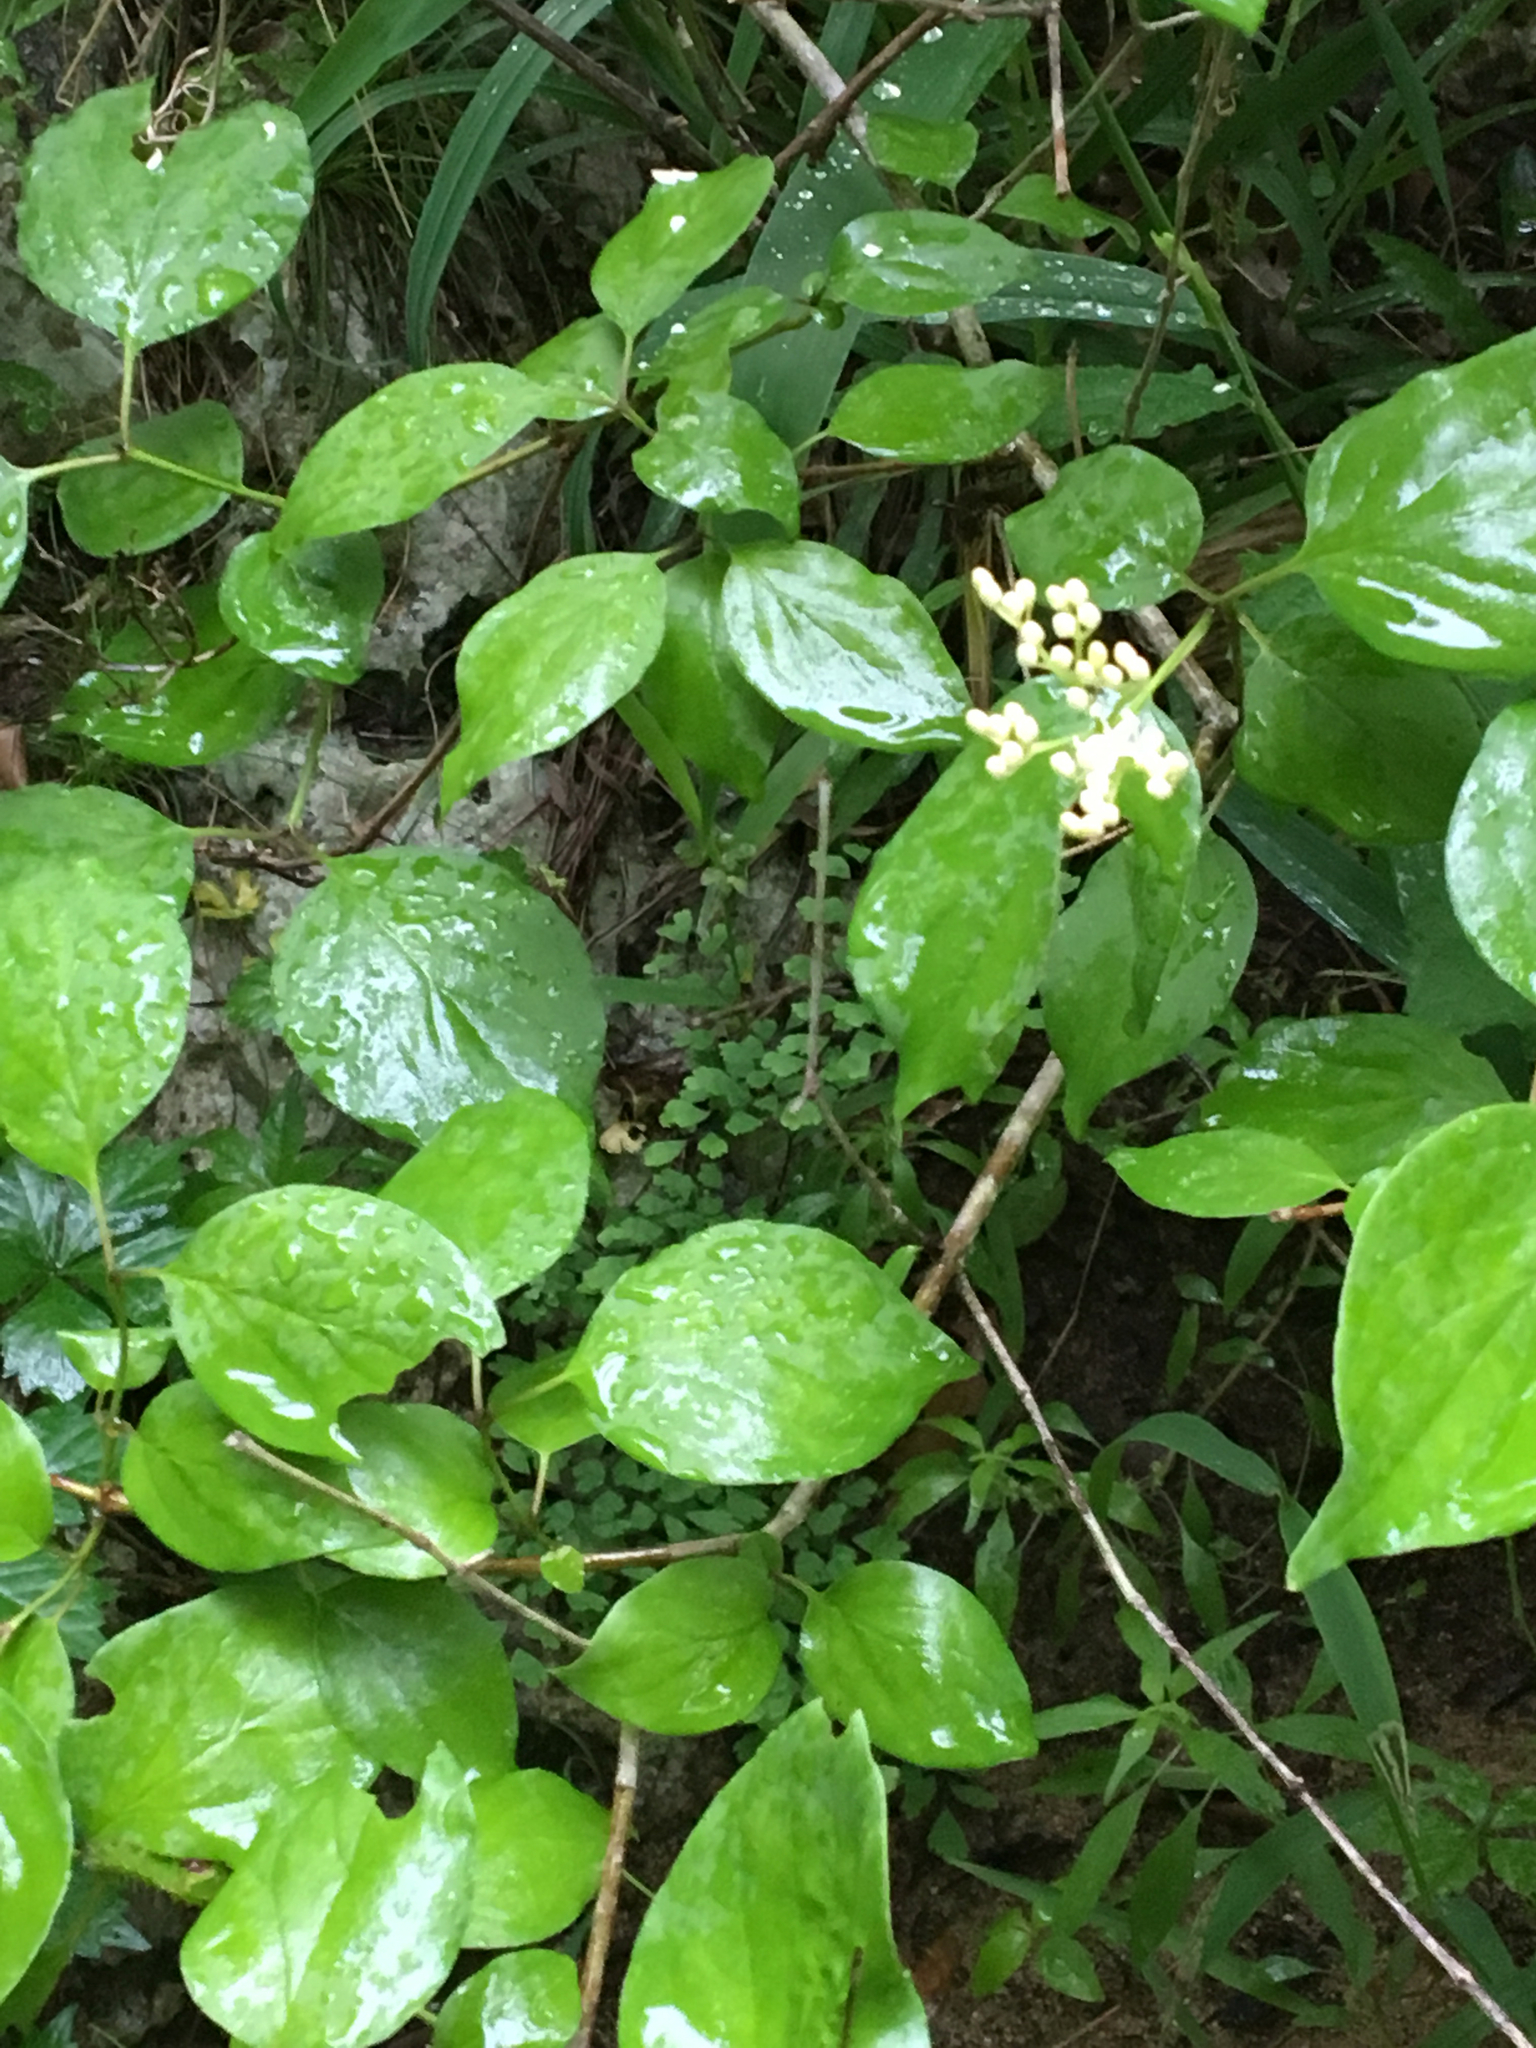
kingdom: Plantae
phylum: Tracheophyta
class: Magnoliopsida
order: Cornales
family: Cornaceae
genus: Cornus
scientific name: Cornus drummondii
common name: Rough-leaf dogwood
